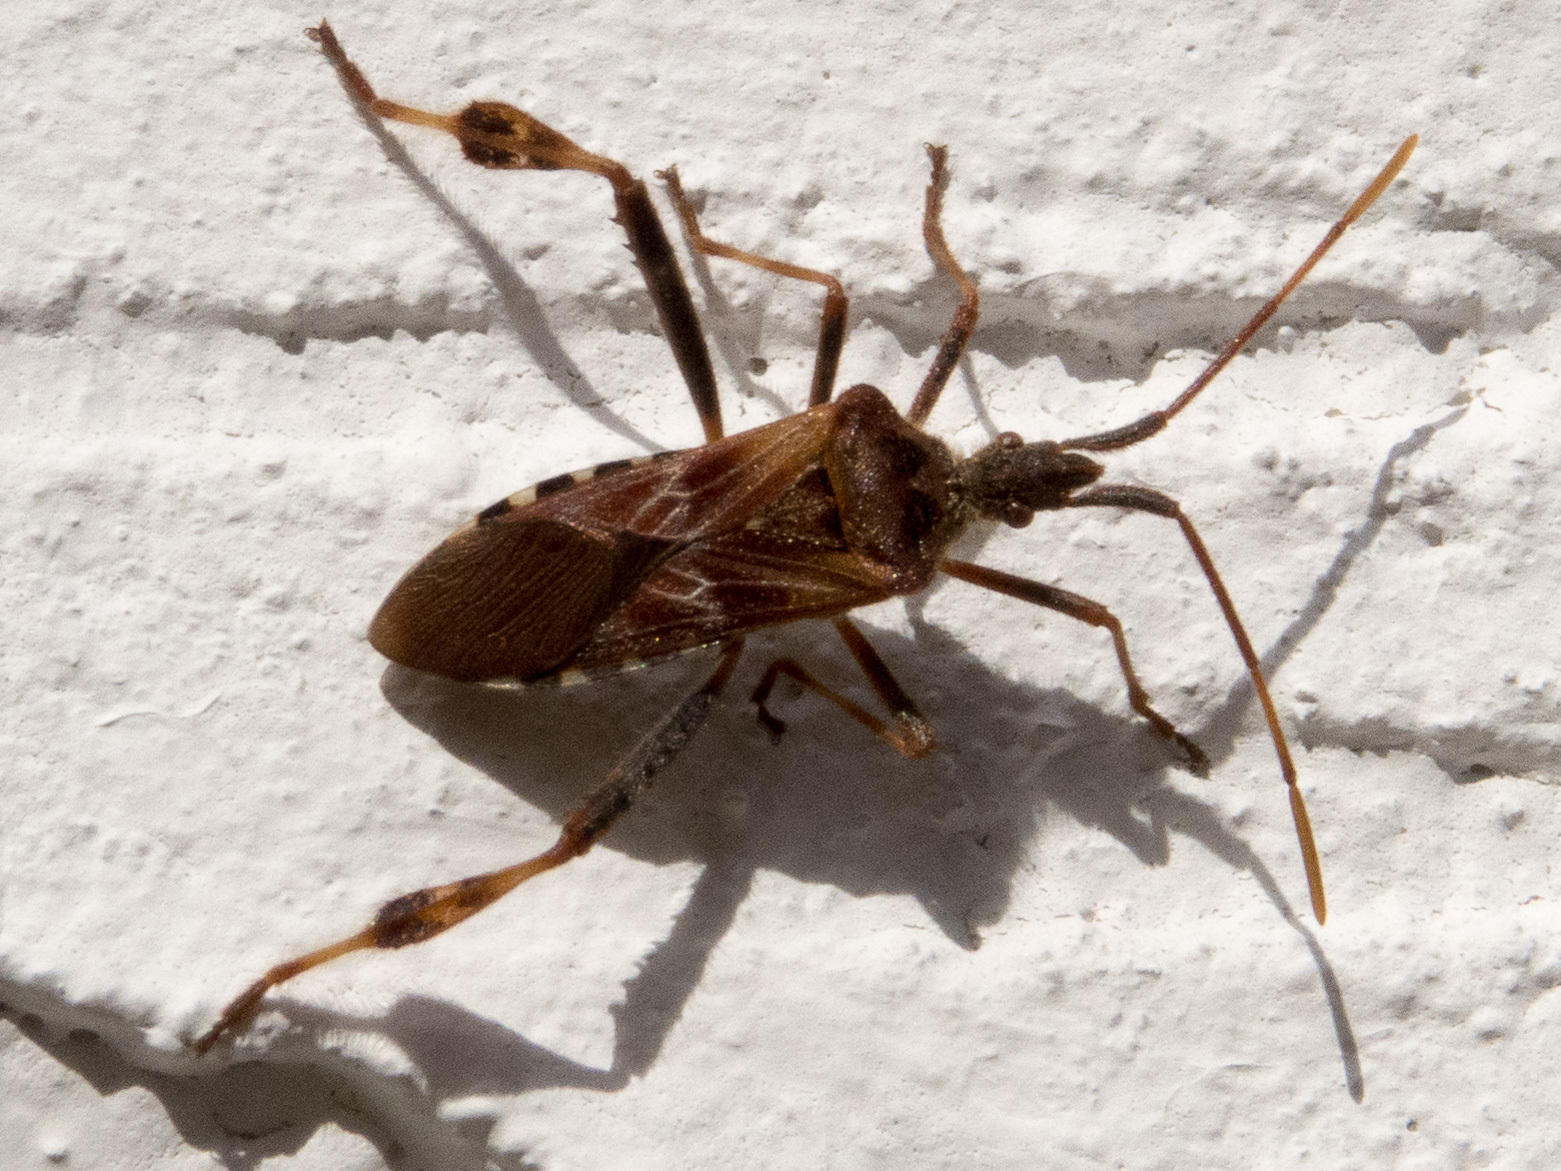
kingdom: Animalia
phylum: Arthropoda
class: Insecta
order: Hemiptera
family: Coreidae
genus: Leptoglossus
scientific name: Leptoglossus occidentalis
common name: Western conifer-seed bug
